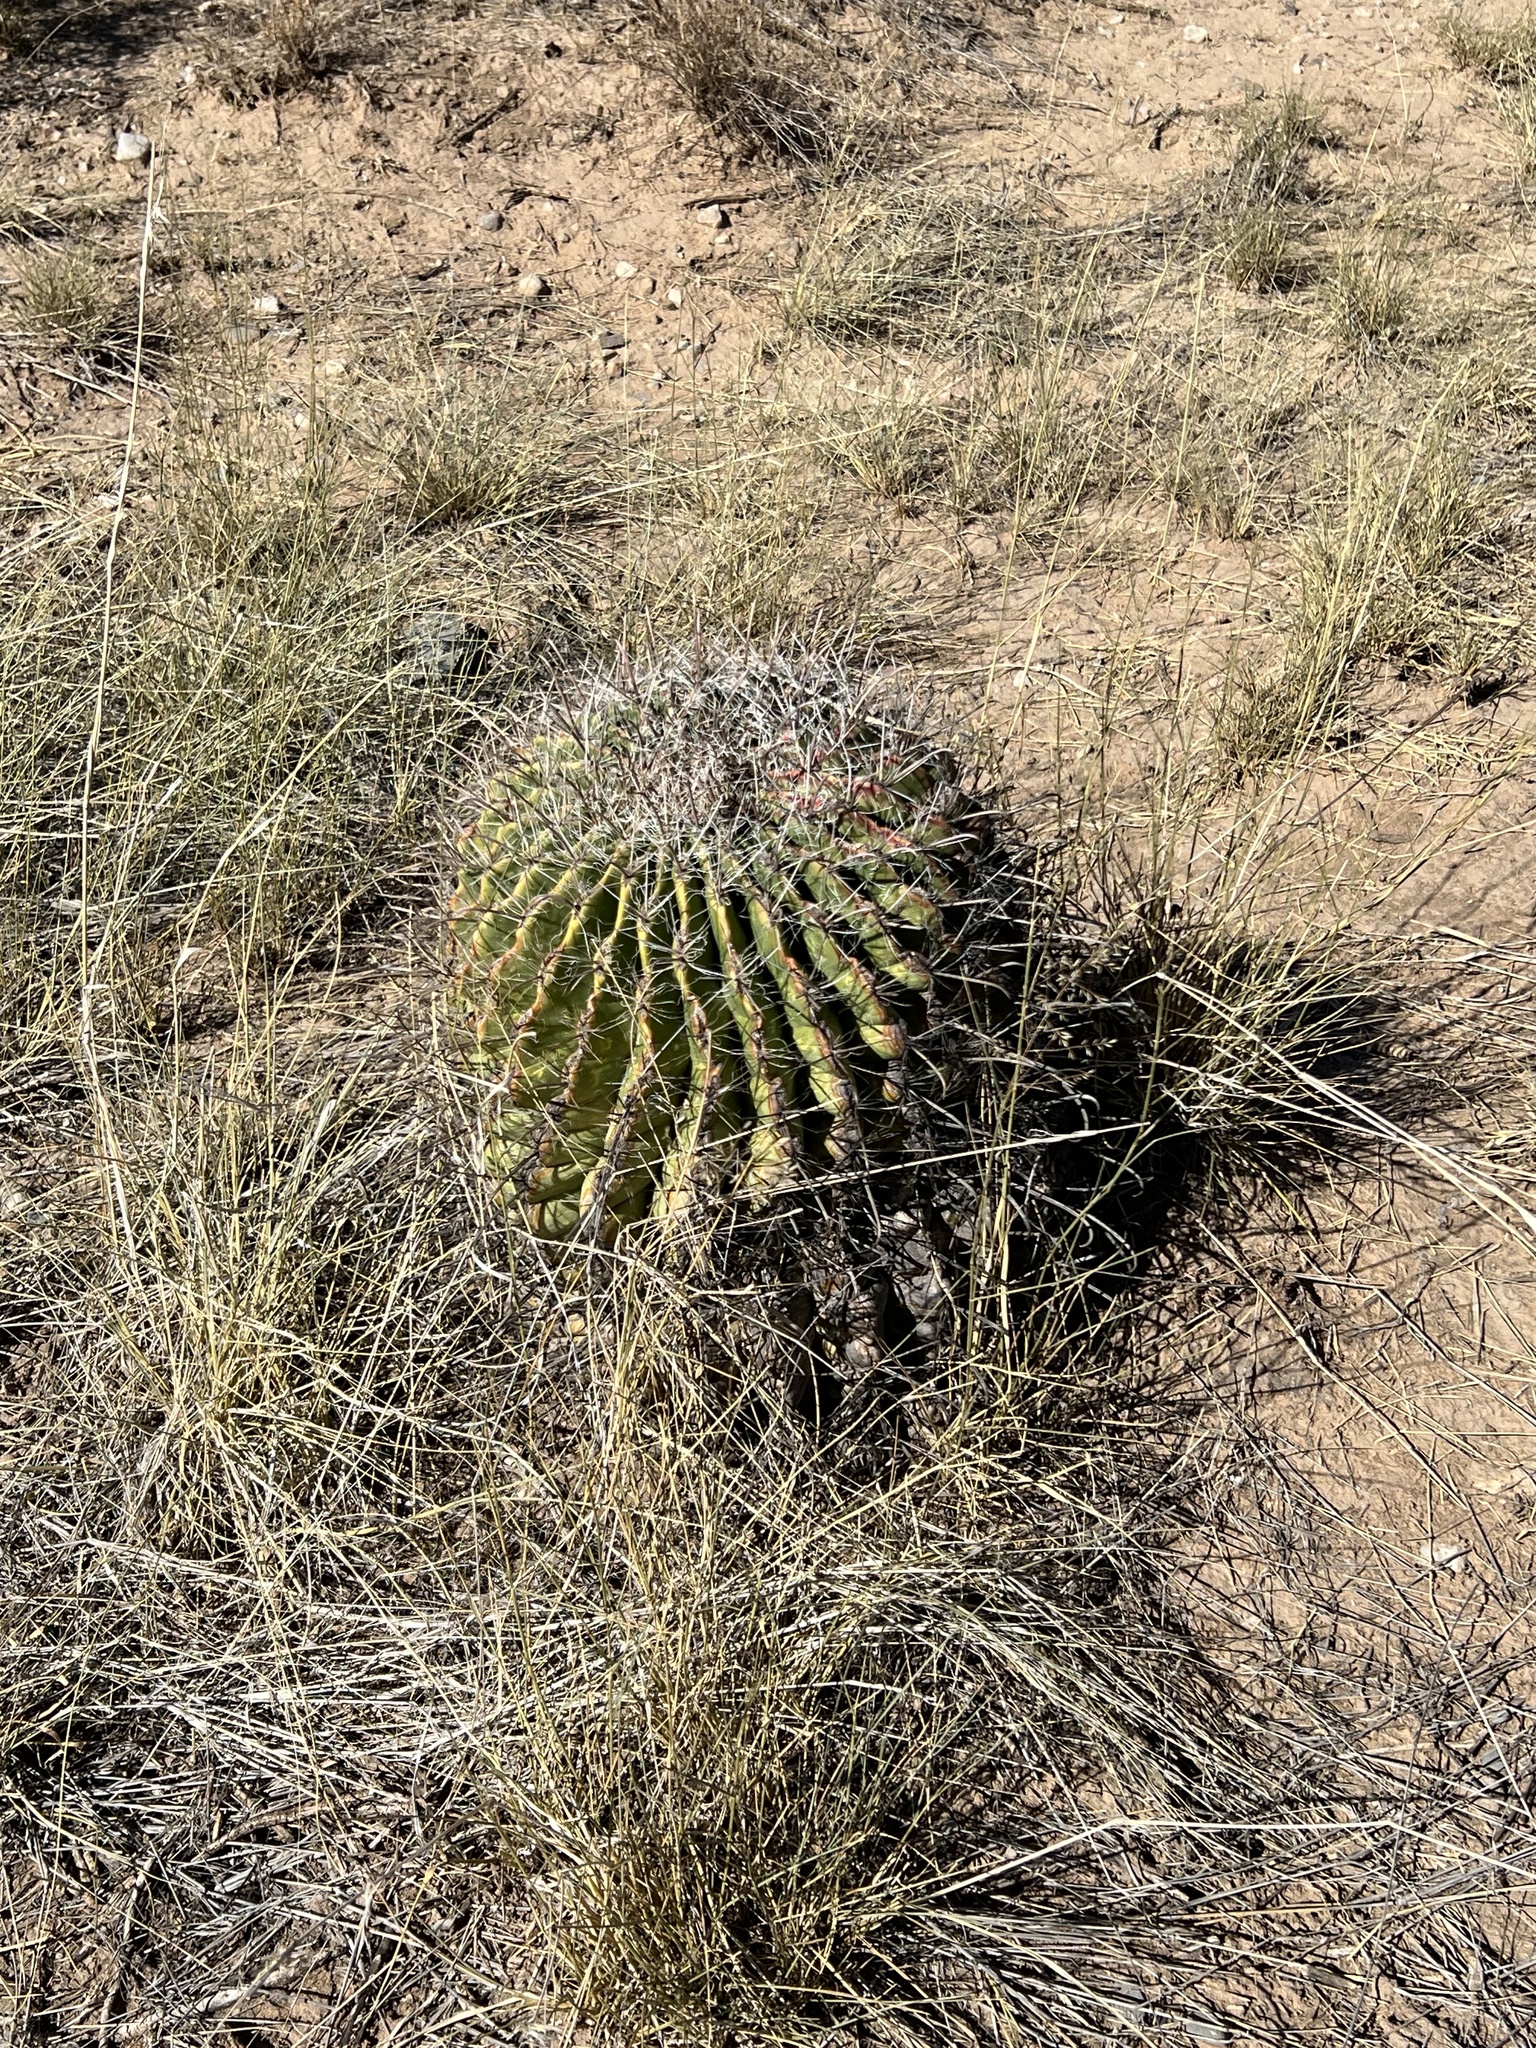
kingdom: Plantae
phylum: Tracheophyta
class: Magnoliopsida
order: Caryophyllales
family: Cactaceae
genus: Ferocactus
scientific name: Ferocactus wislizeni
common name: Candy barrel cactus
